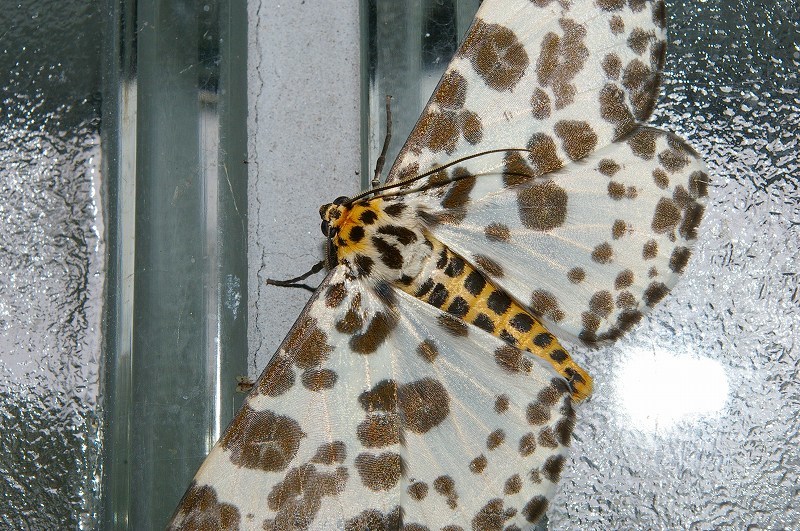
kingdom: Animalia
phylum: Arthropoda
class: Insecta
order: Lepidoptera
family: Geometridae
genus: Parapercnia
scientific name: Parapercnia giraffata
